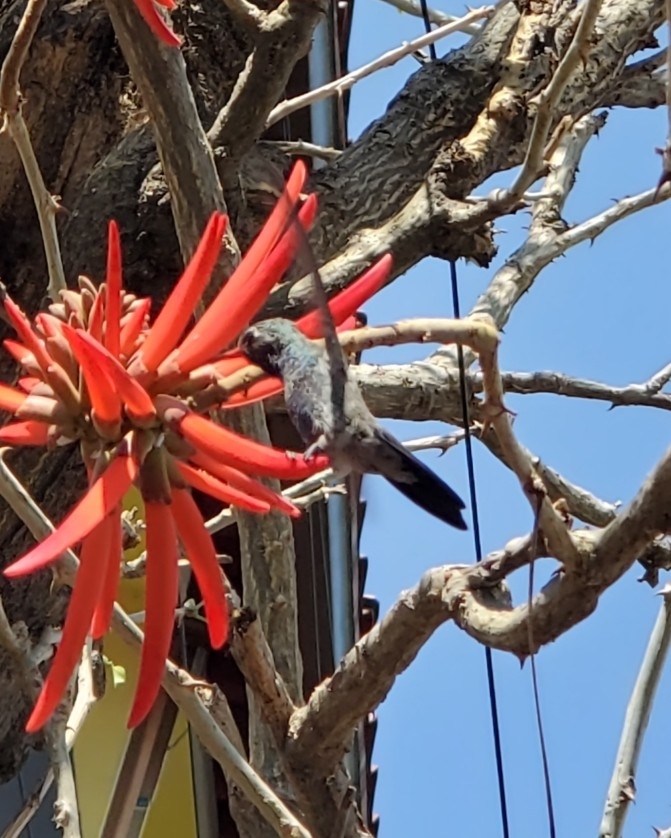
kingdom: Animalia
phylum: Chordata
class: Aves
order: Apodiformes
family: Trochilidae
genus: Cynanthus
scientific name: Cynanthus latirostris
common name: Broad-billed hummingbird
